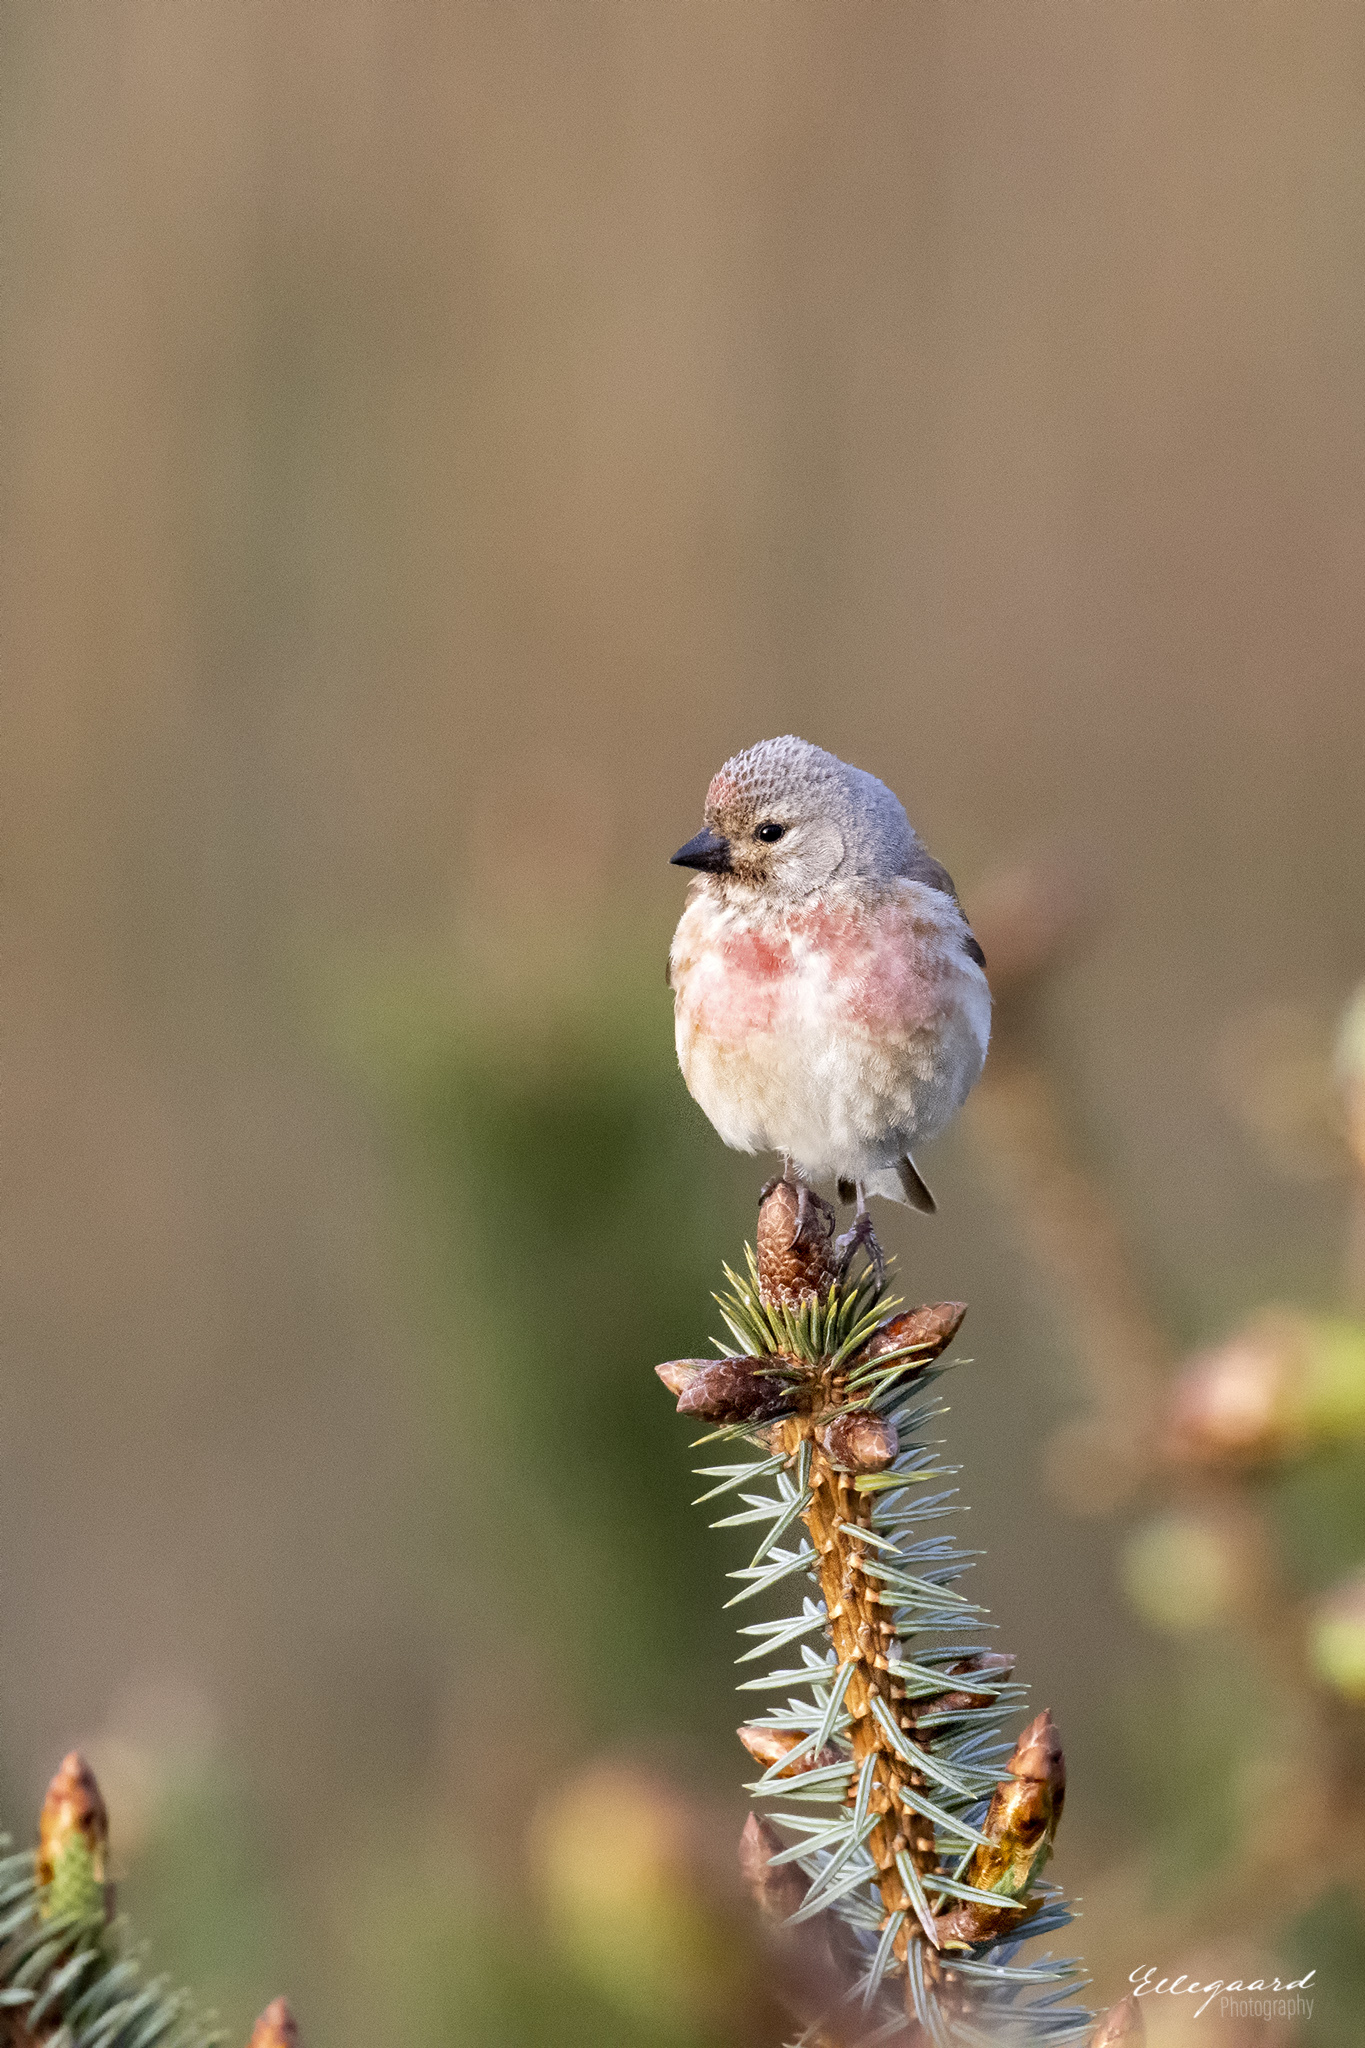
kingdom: Animalia
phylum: Chordata
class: Aves
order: Passeriformes
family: Fringillidae
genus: Linaria
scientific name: Linaria cannabina
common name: Common linnet
